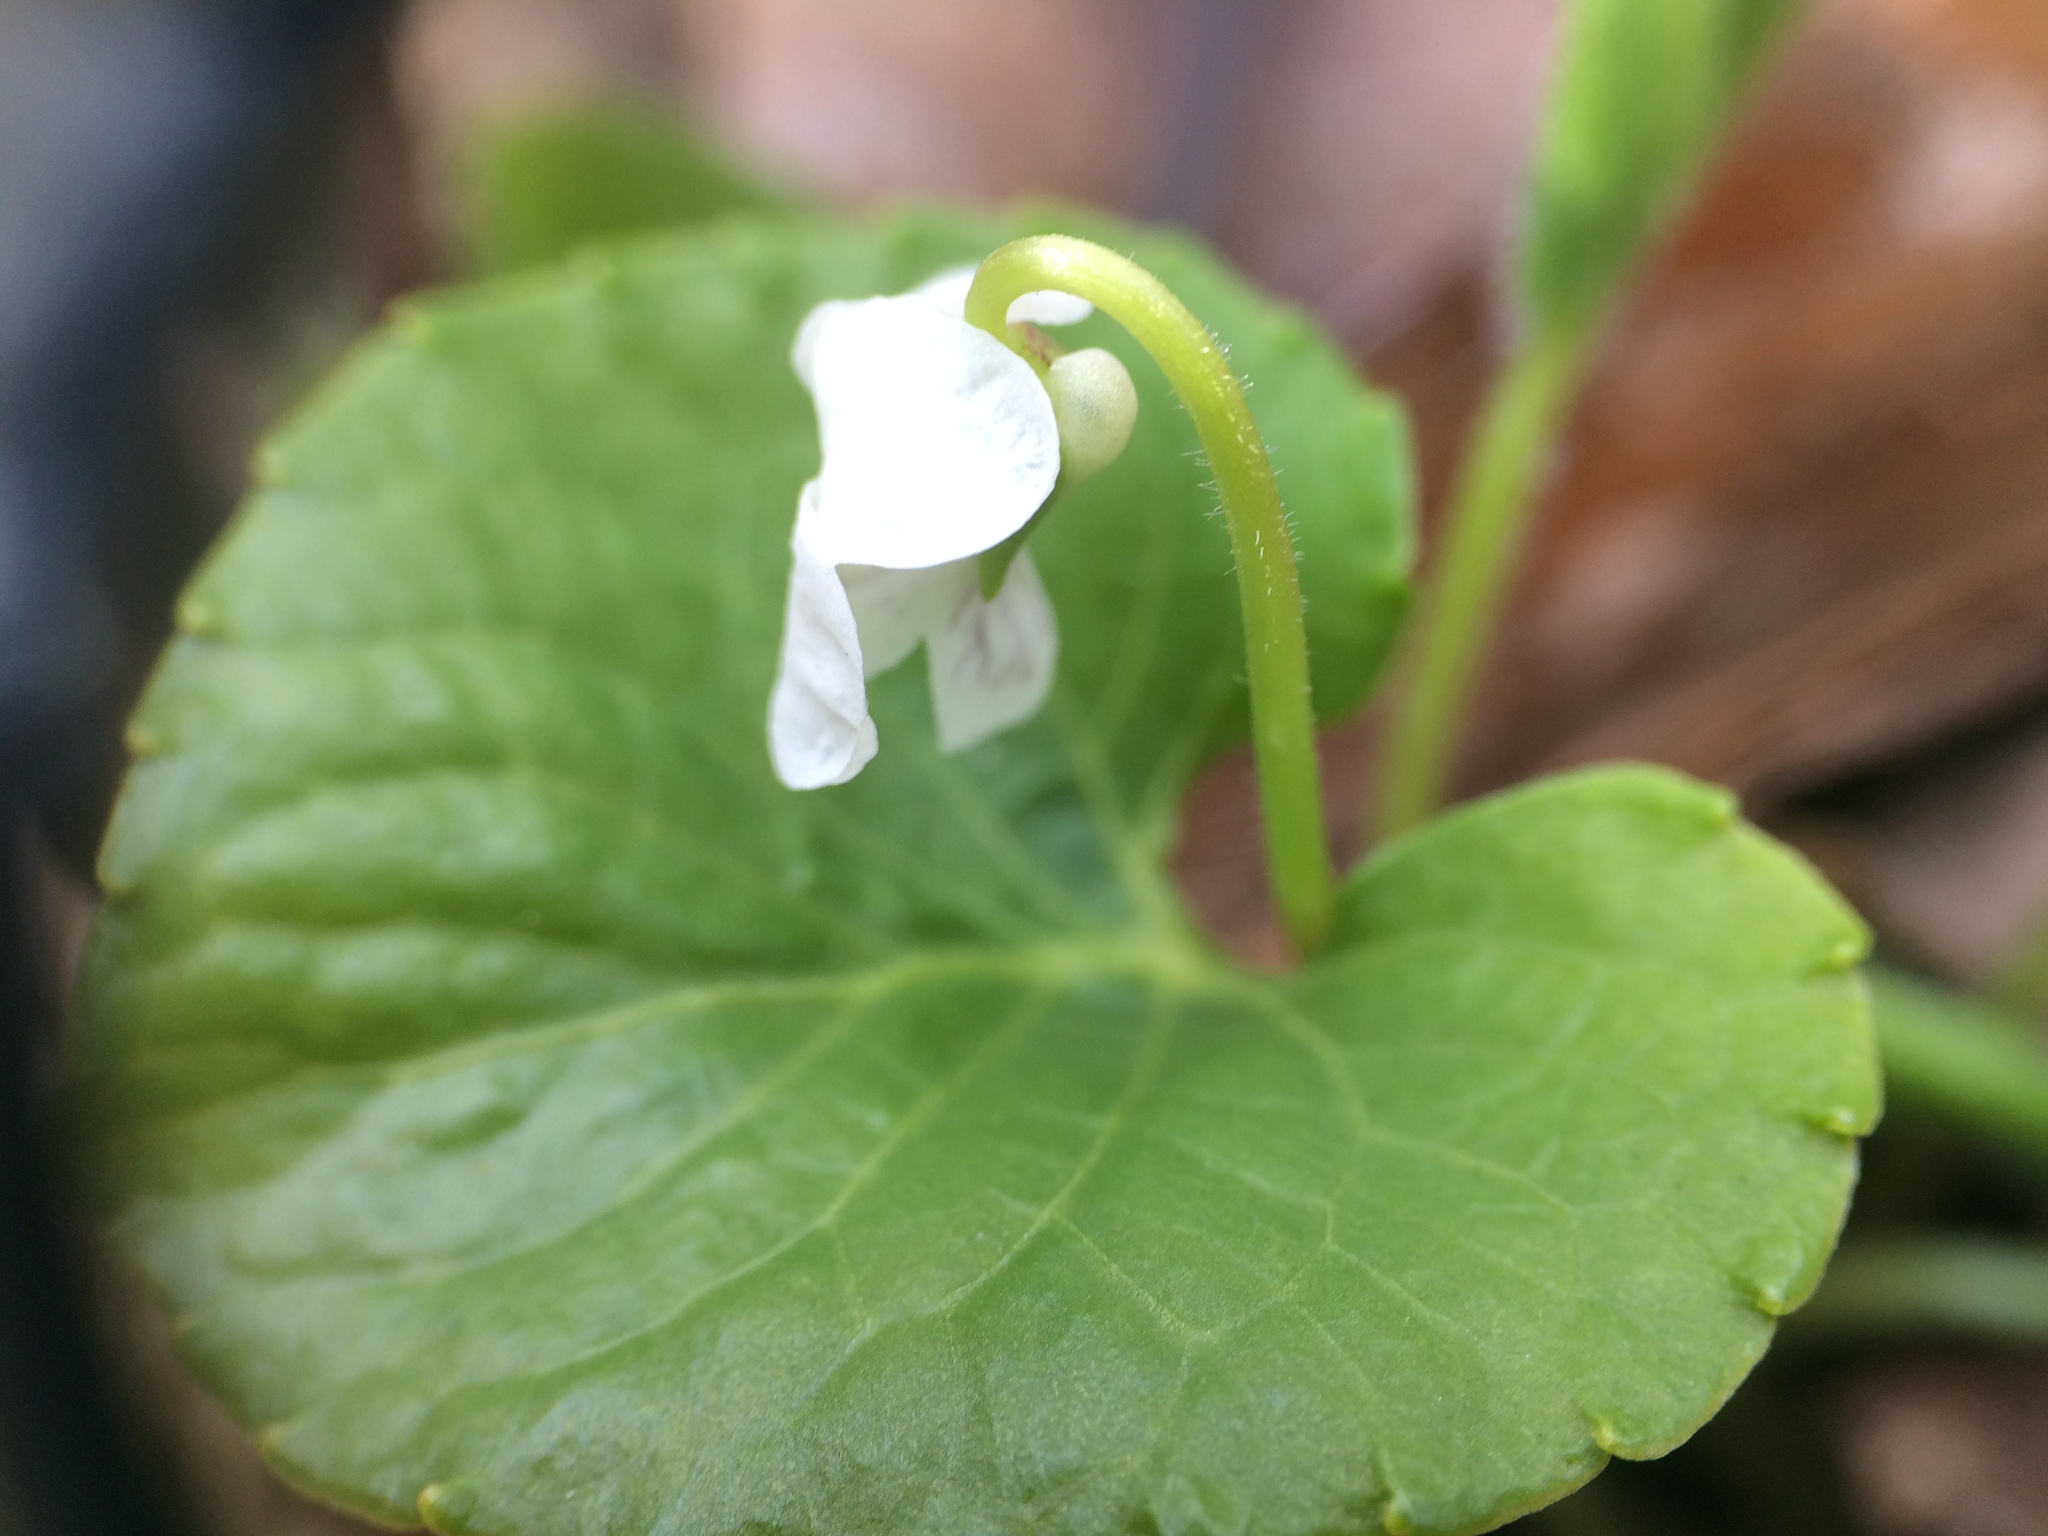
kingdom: Plantae
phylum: Tracheophyta
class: Magnoliopsida
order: Malpighiales
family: Violaceae
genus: Viola
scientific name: Viola incognita
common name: Largeleaf white violet
